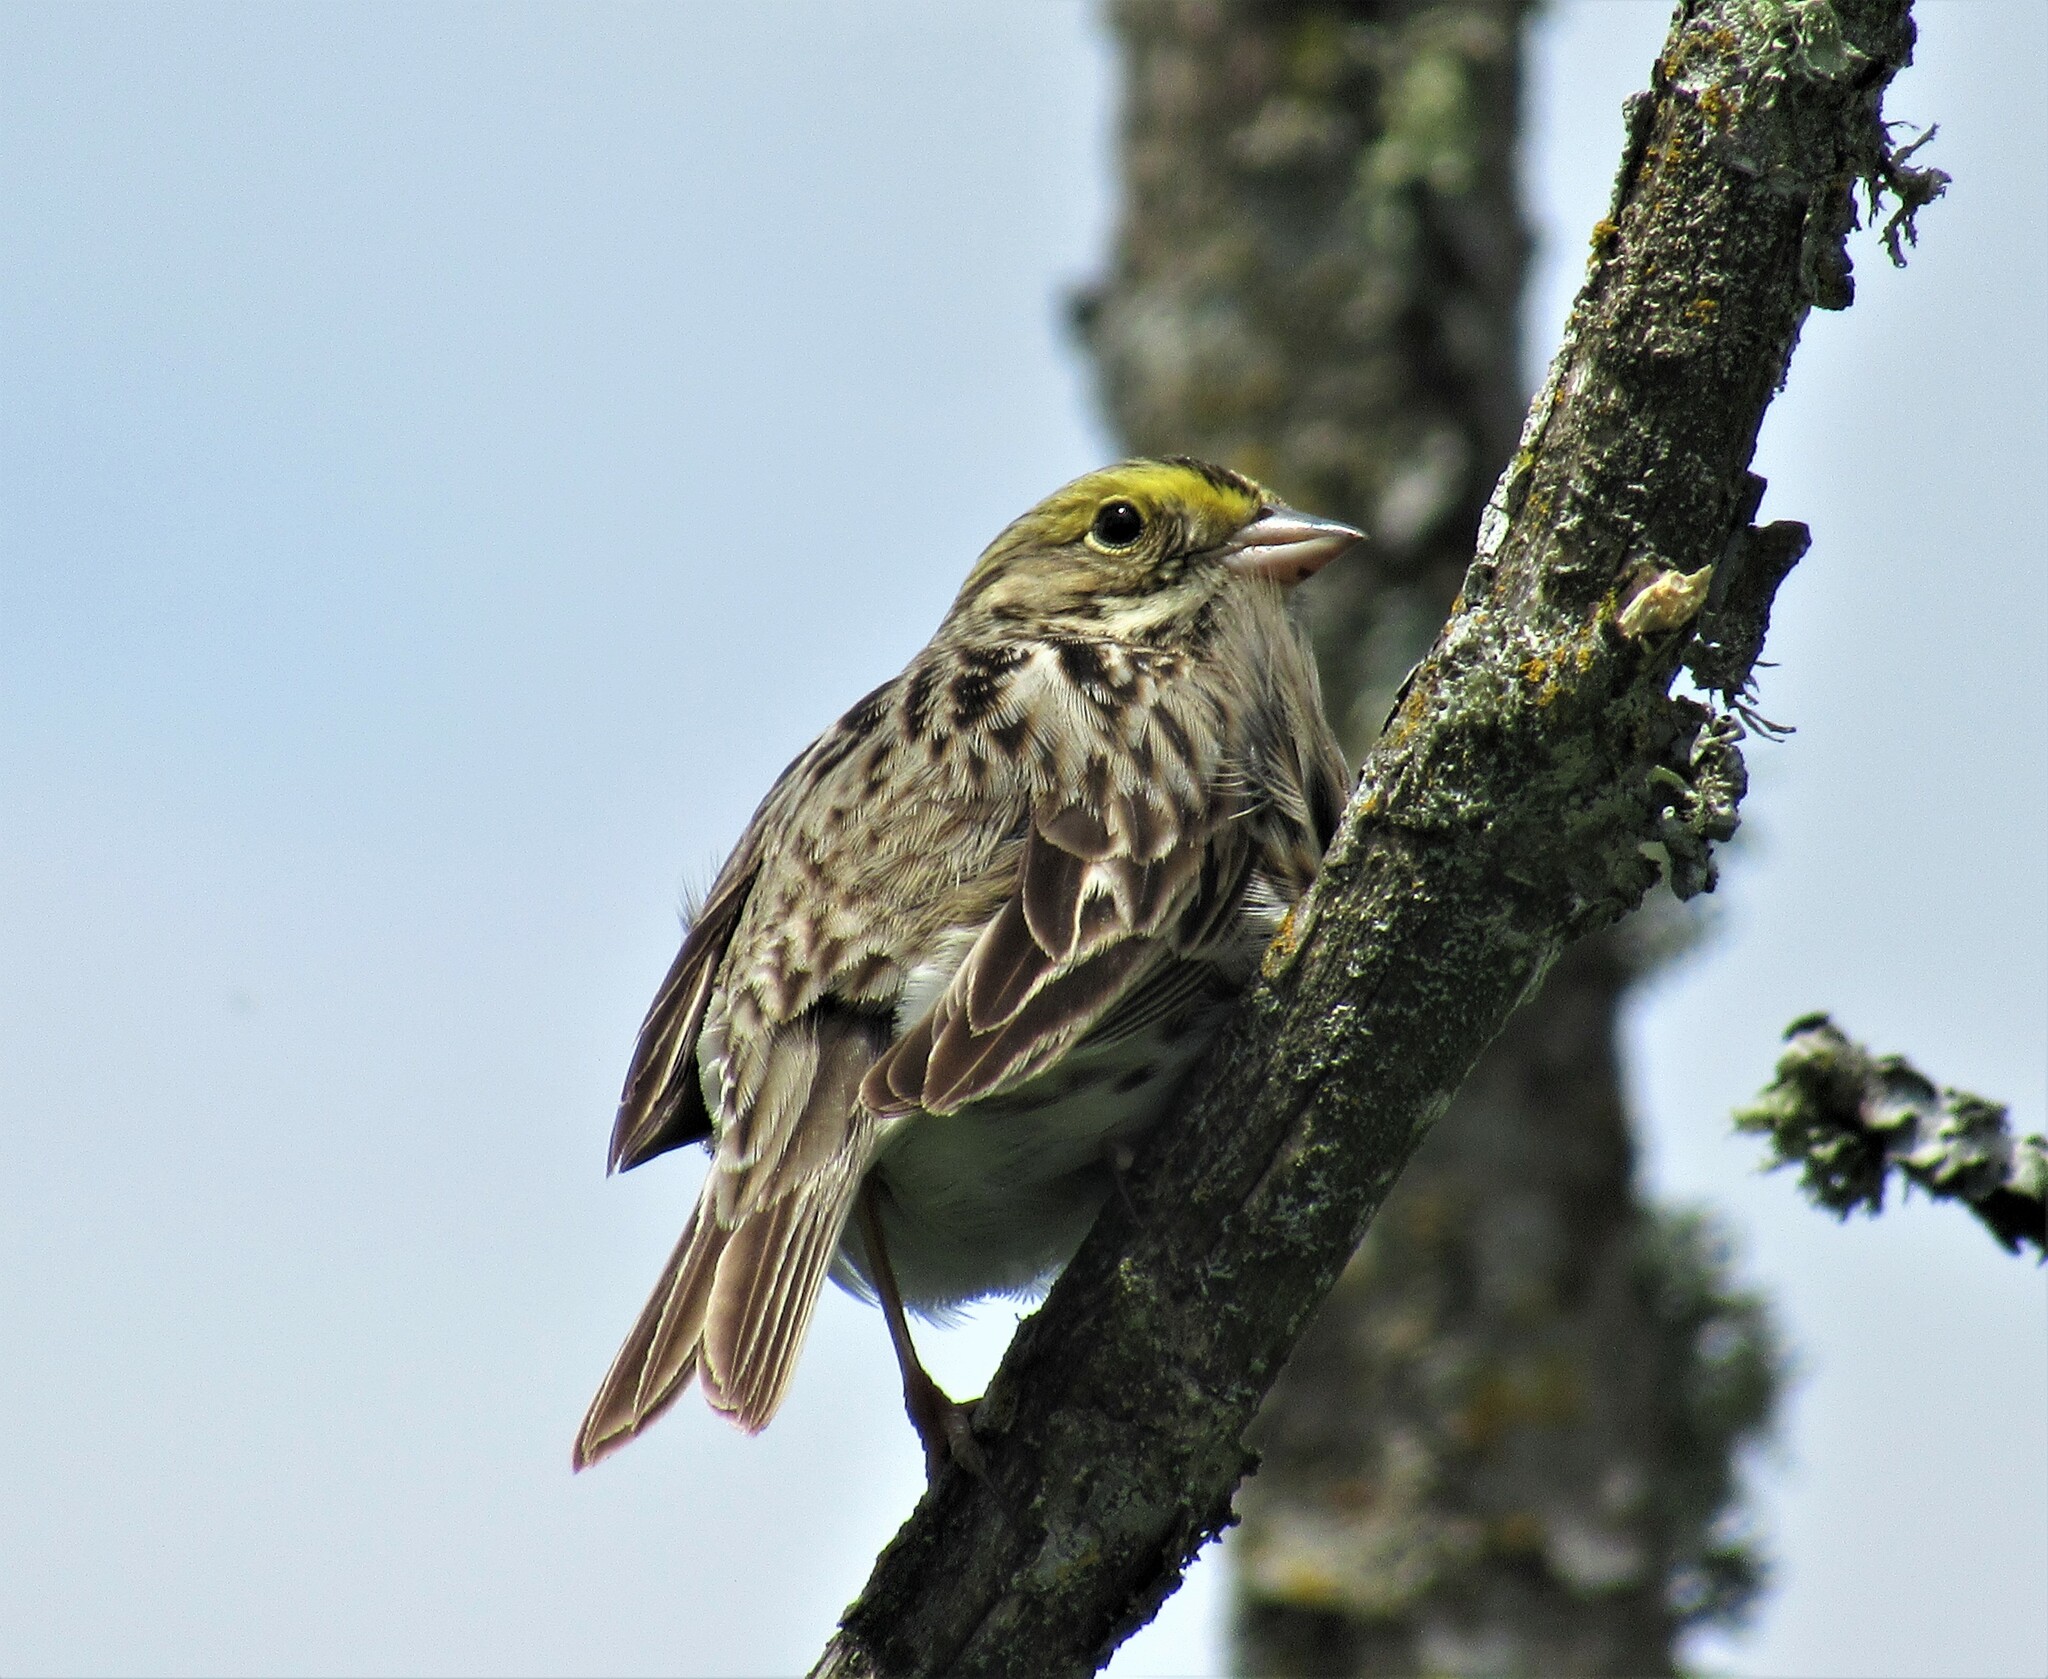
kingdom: Animalia
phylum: Chordata
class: Aves
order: Passeriformes
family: Passerellidae
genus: Passerculus
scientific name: Passerculus sandwichensis
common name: Savannah sparrow
